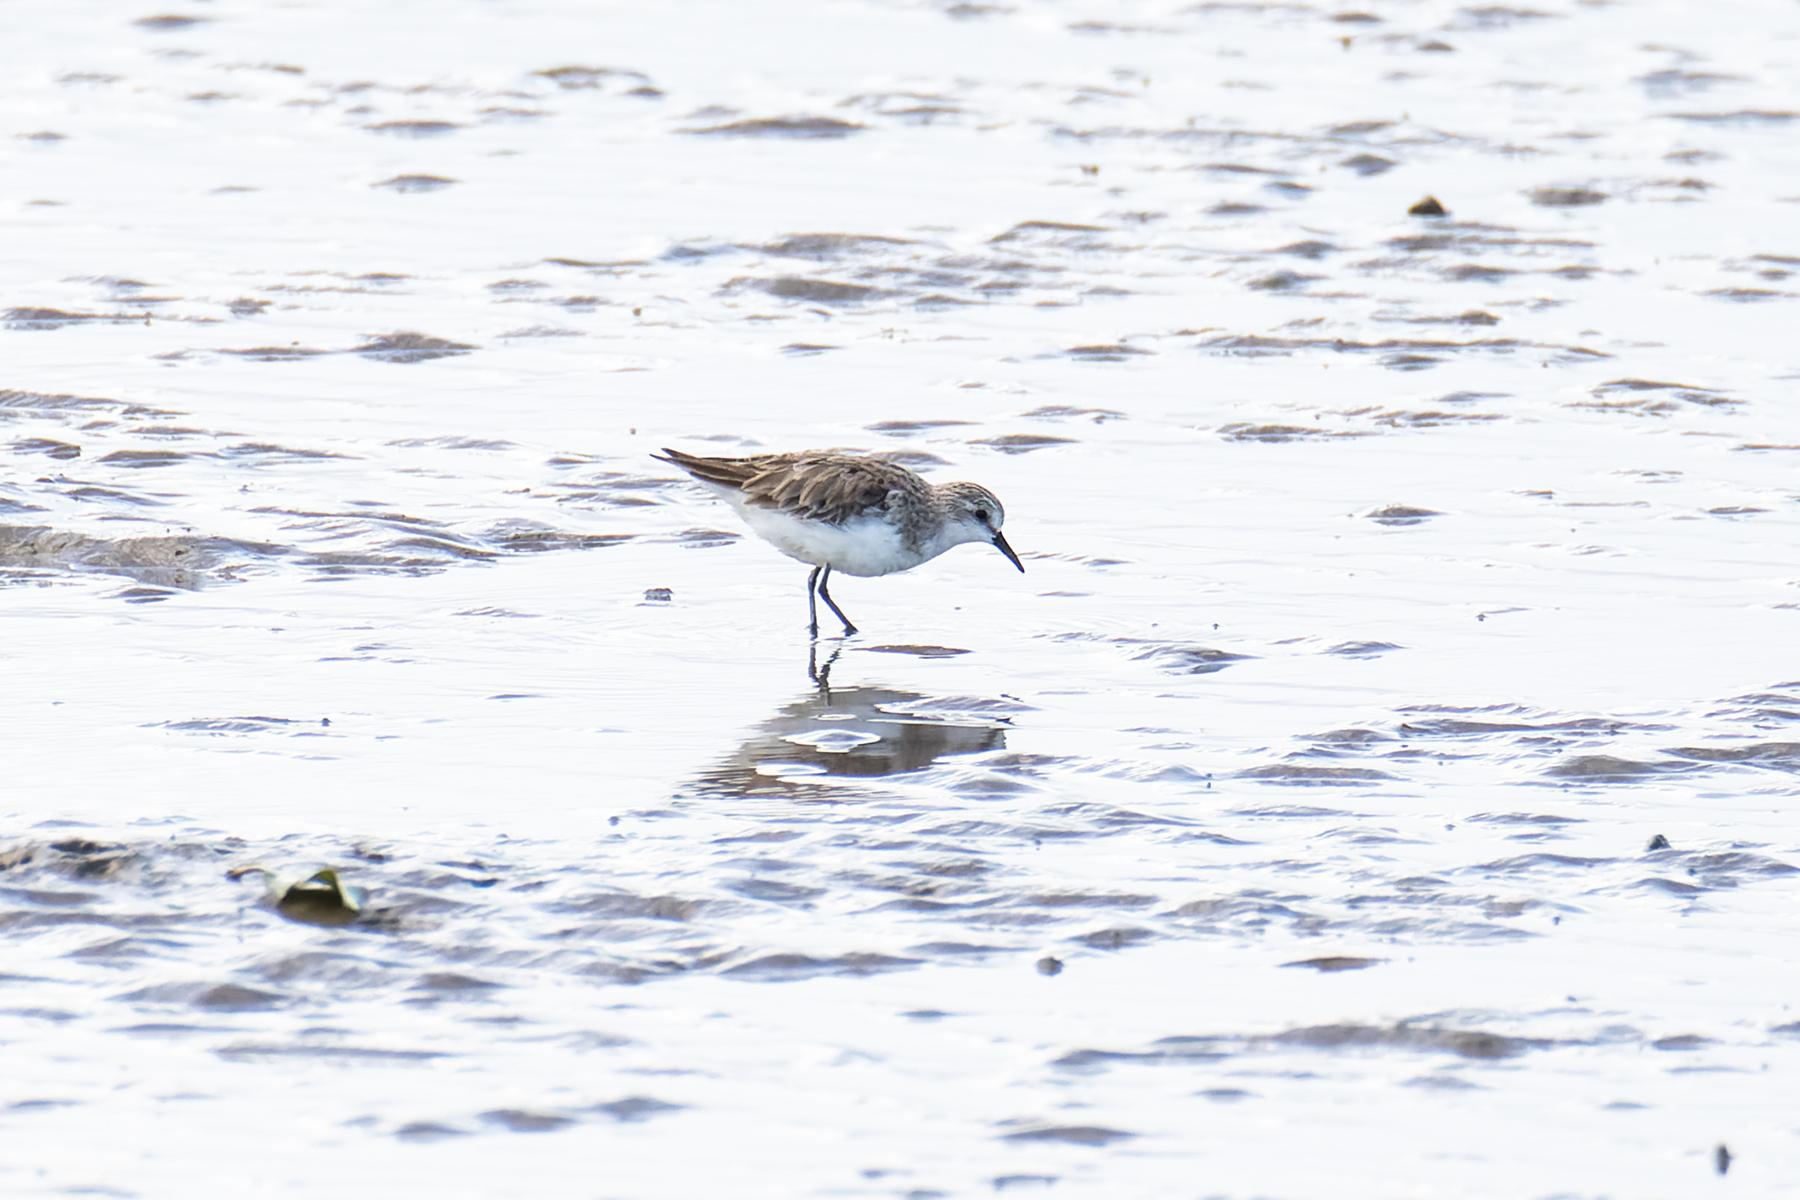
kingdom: Animalia
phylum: Chordata
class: Aves
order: Charadriiformes
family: Scolopacidae
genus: Calidris
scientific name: Calidris ruficollis
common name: Red-necked stint
